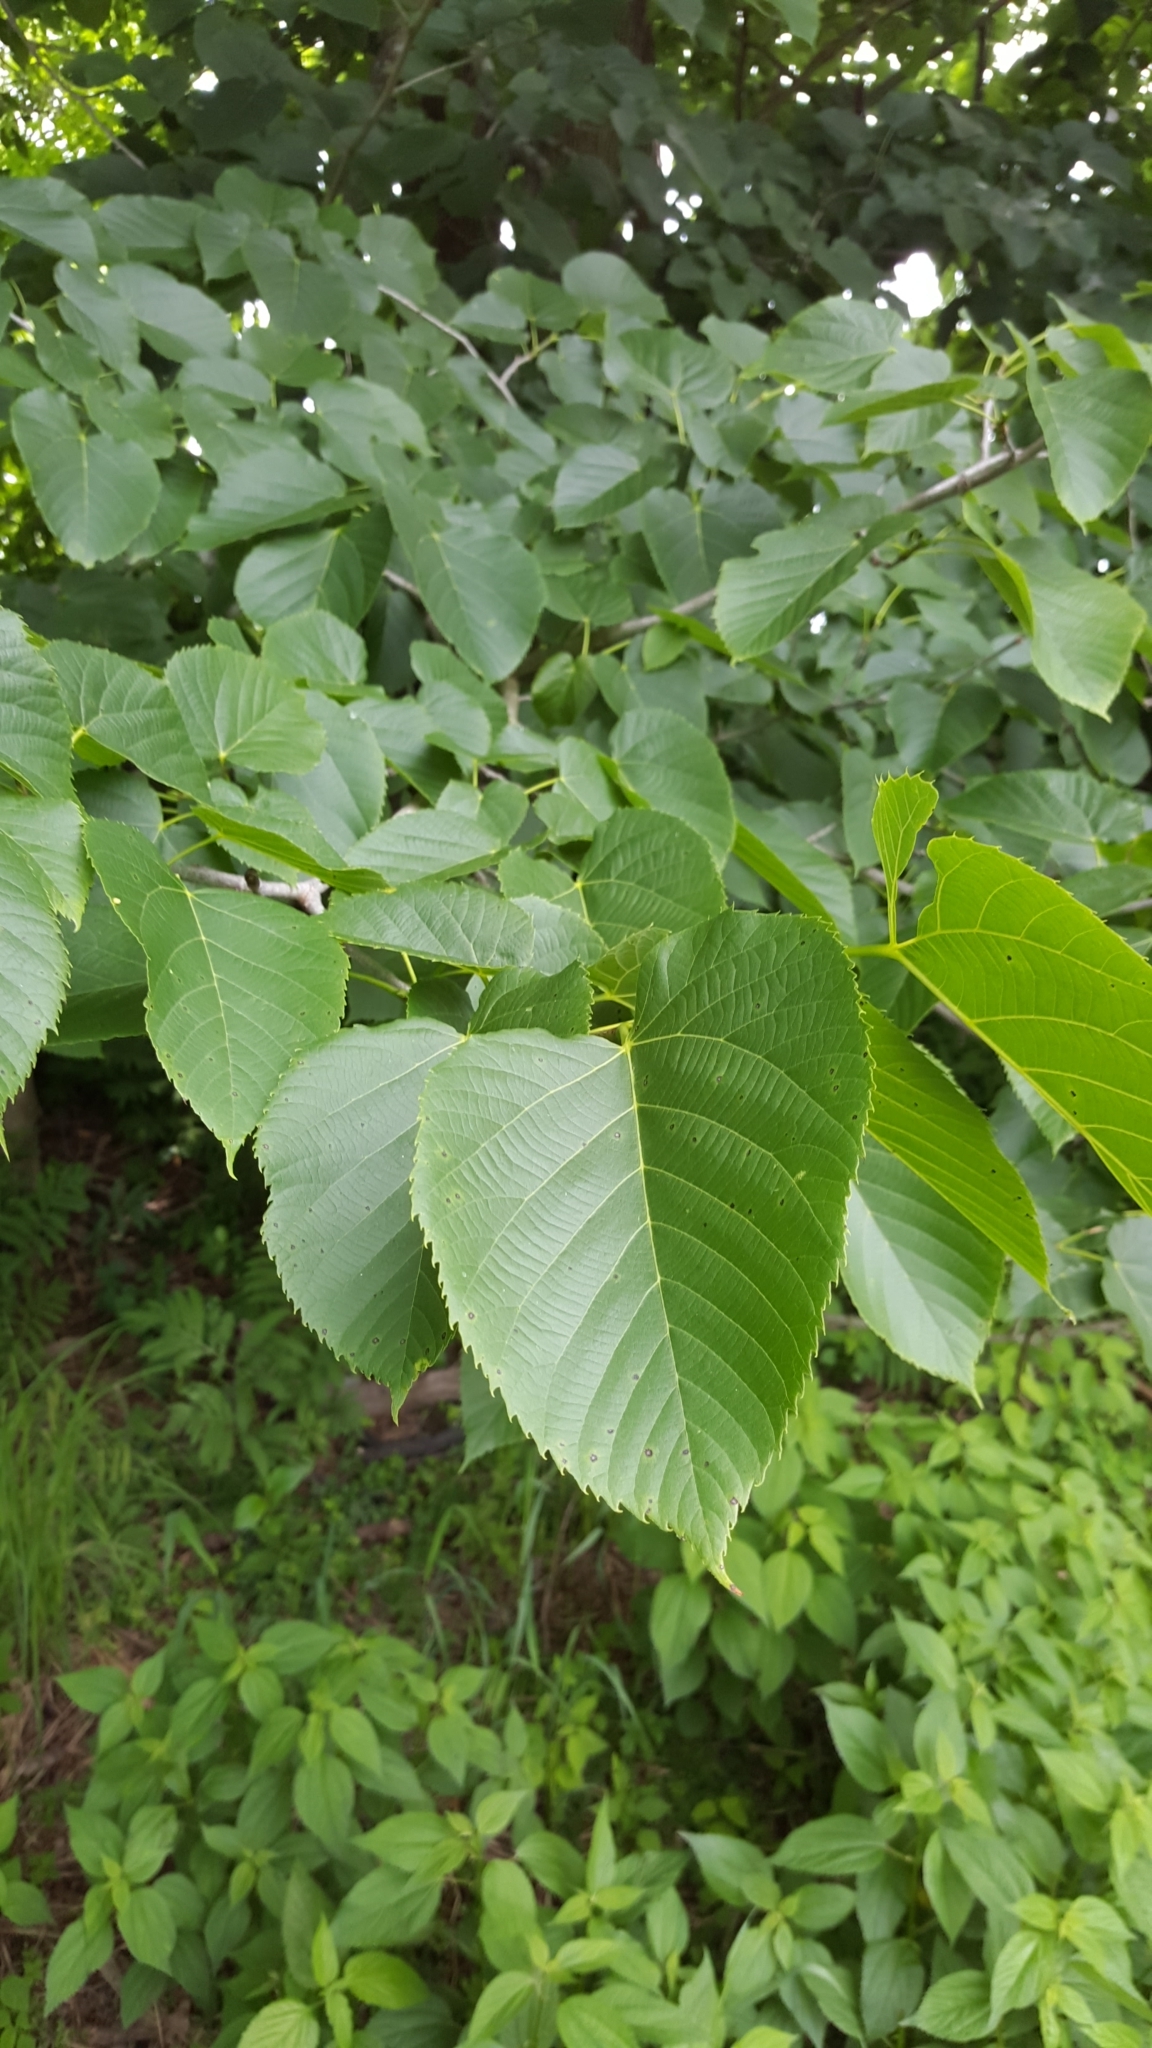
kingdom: Plantae
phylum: Tracheophyta
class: Magnoliopsida
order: Malvales
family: Malvaceae
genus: Tilia
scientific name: Tilia americana
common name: Basswood
